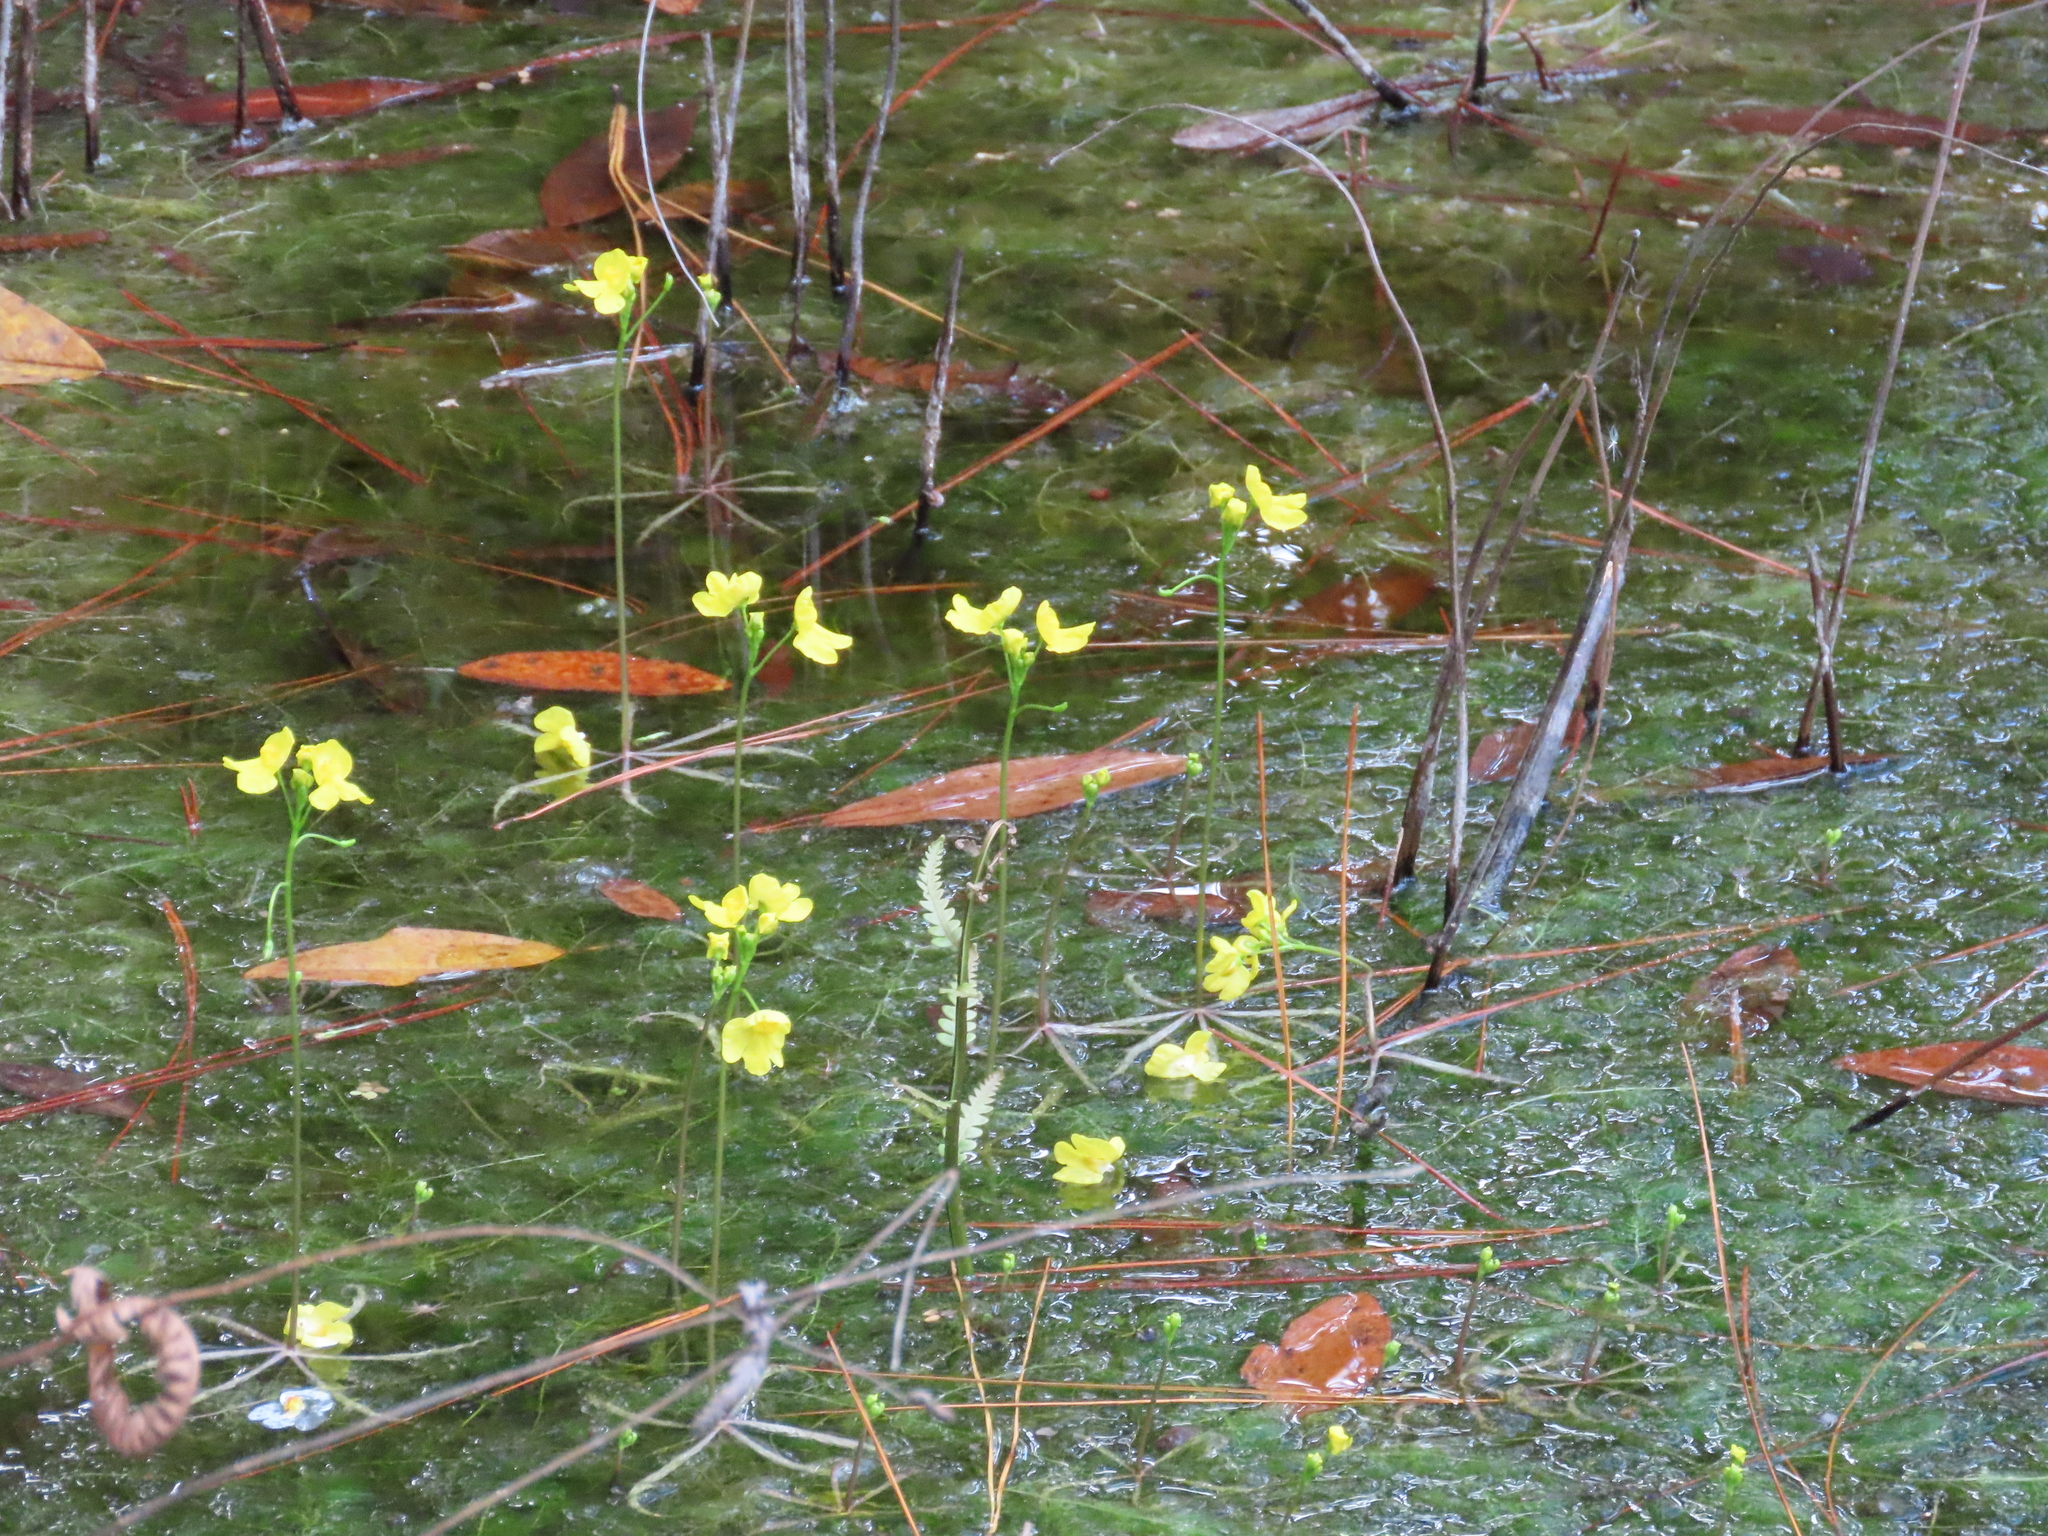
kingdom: Plantae
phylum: Tracheophyta
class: Magnoliopsida
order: Lamiales
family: Lentibulariaceae
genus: Utricularia
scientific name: Utricularia inflata
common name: Floating bladderwort
